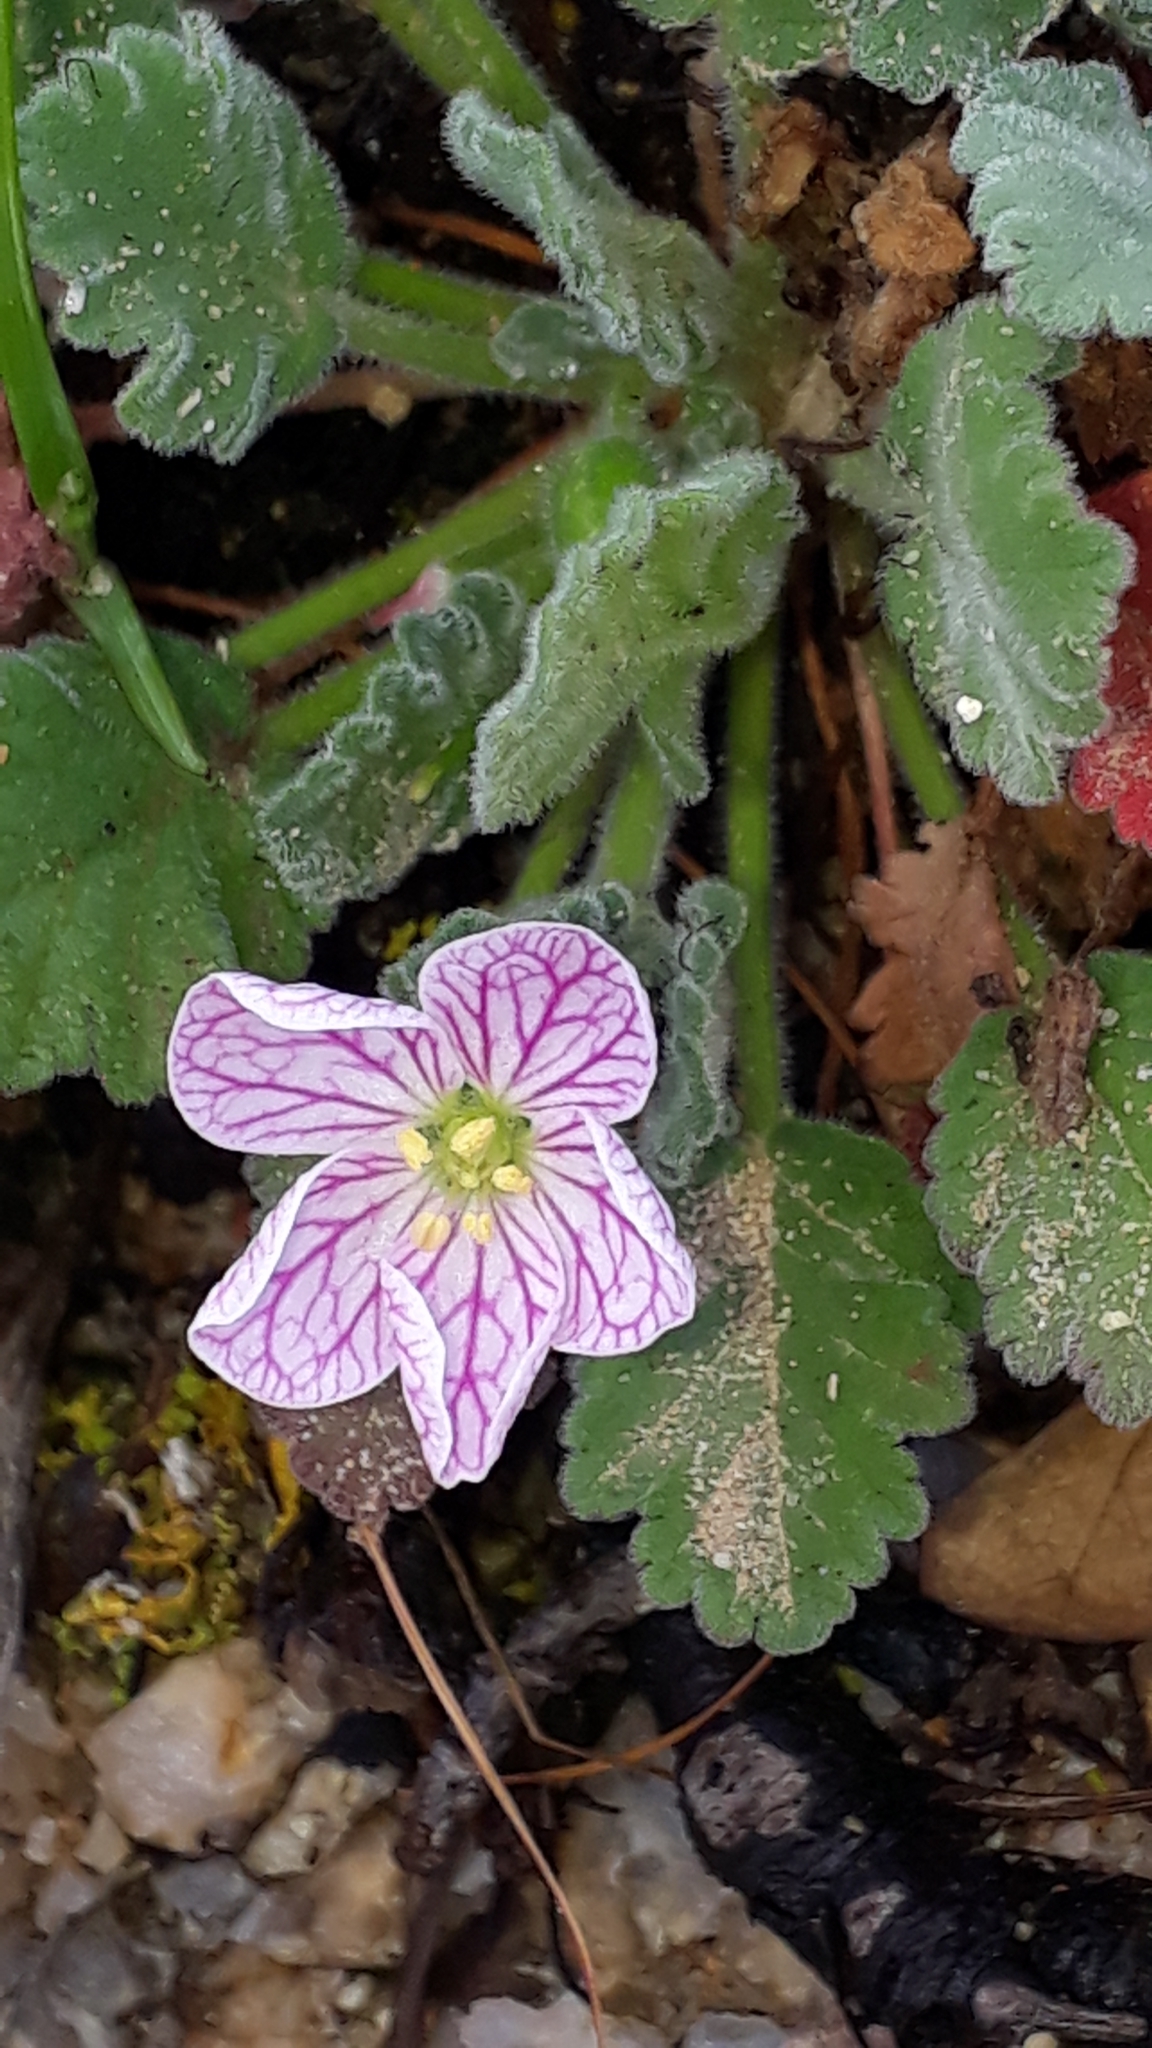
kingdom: Plantae
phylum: Tracheophyta
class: Magnoliopsida
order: Geraniales
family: Geraniaceae
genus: Erodium
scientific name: Erodium corsicum
